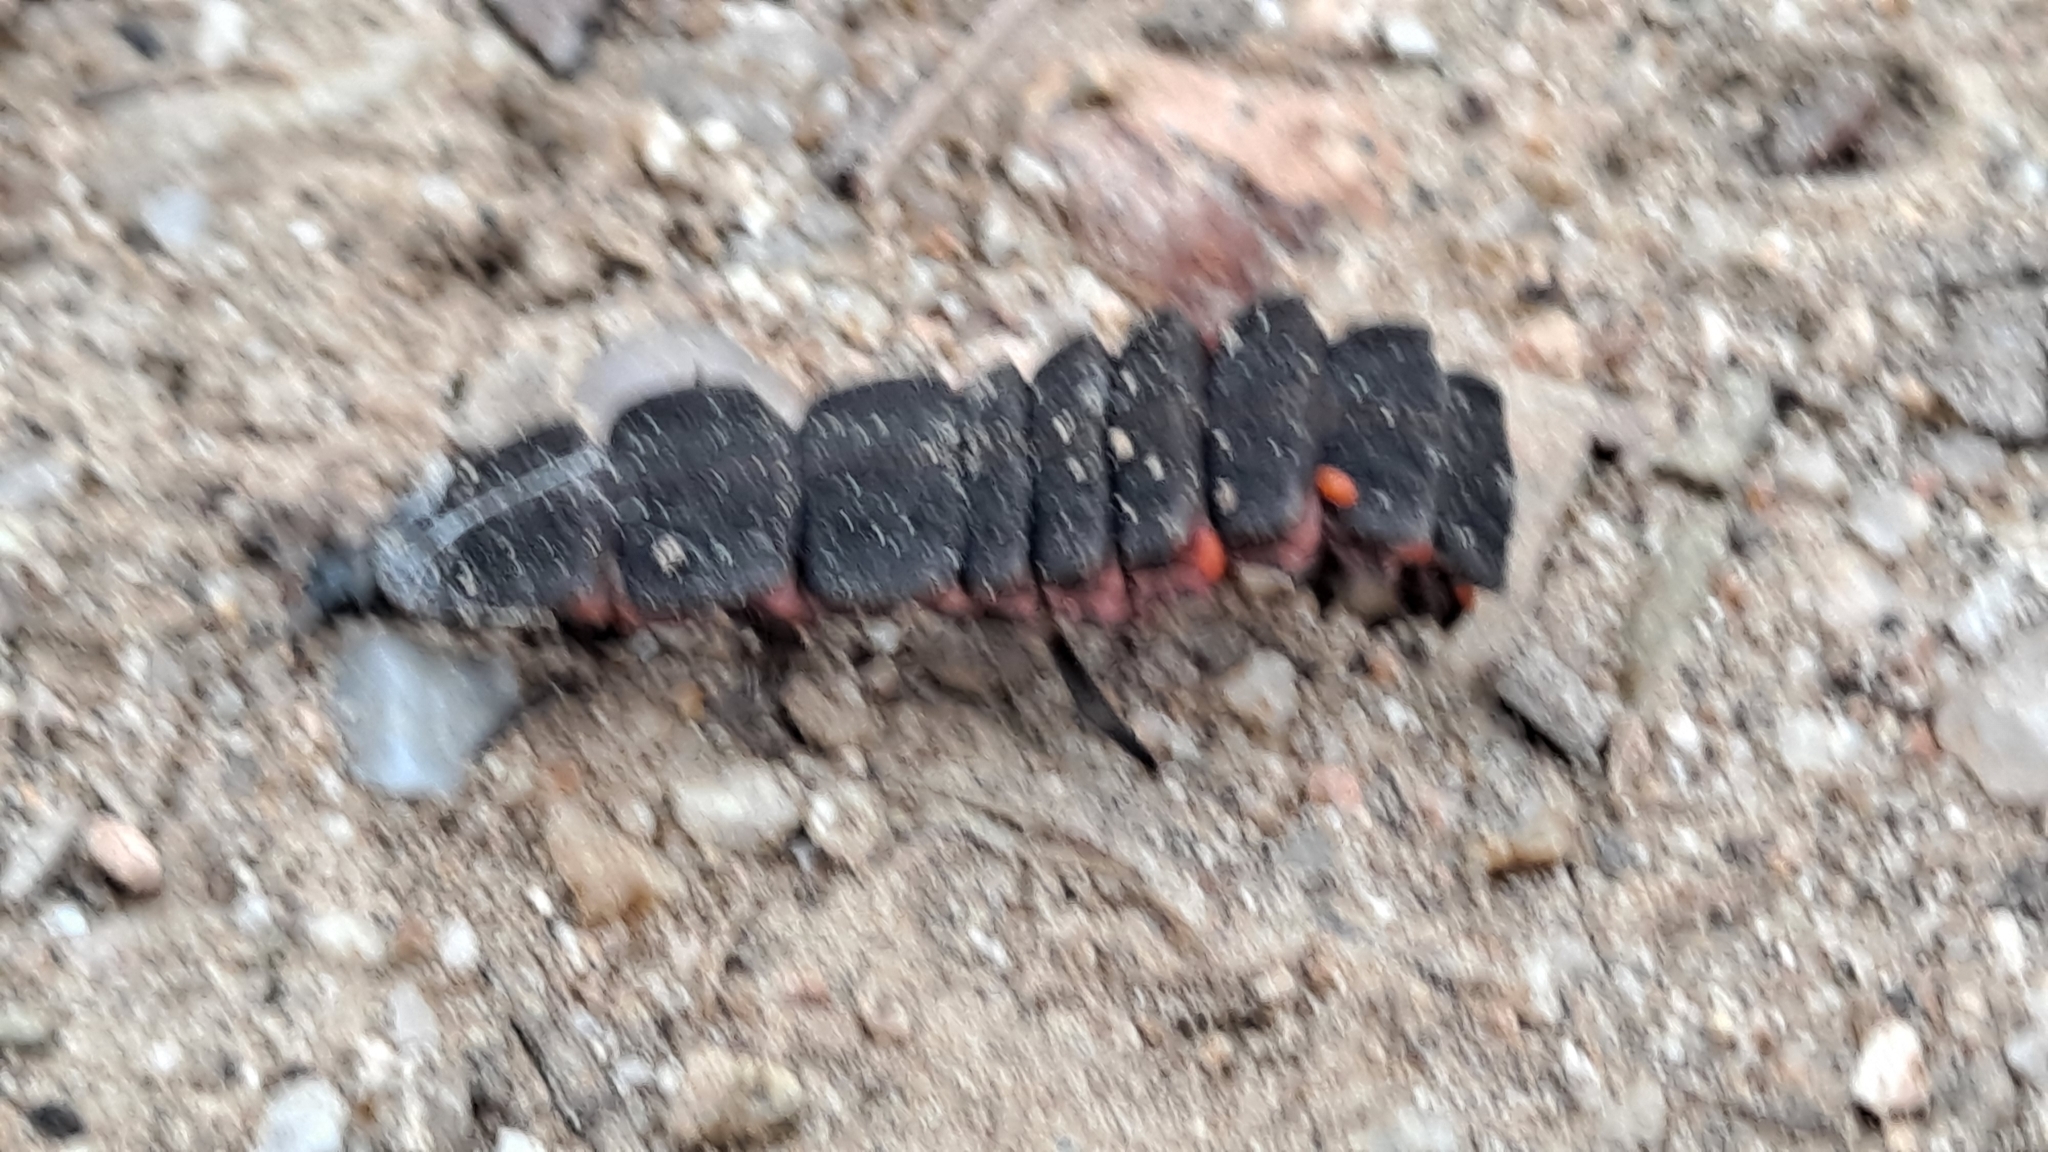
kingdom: Animalia
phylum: Arthropoda
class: Insecta
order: Coleoptera
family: Lampyridae
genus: Nyctophila
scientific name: Nyctophila reichii
